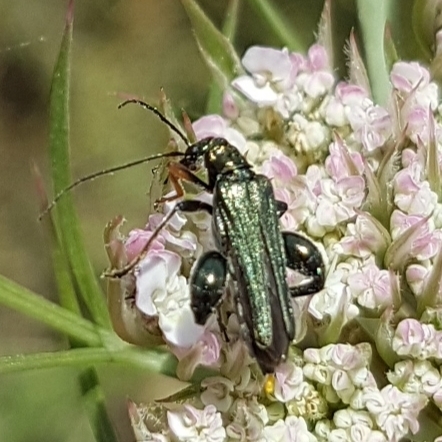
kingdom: Animalia
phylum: Arthropoda
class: Insecta
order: Coleoptera
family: Oedemeridae
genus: Oedemera
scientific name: Oedemera flavipes
